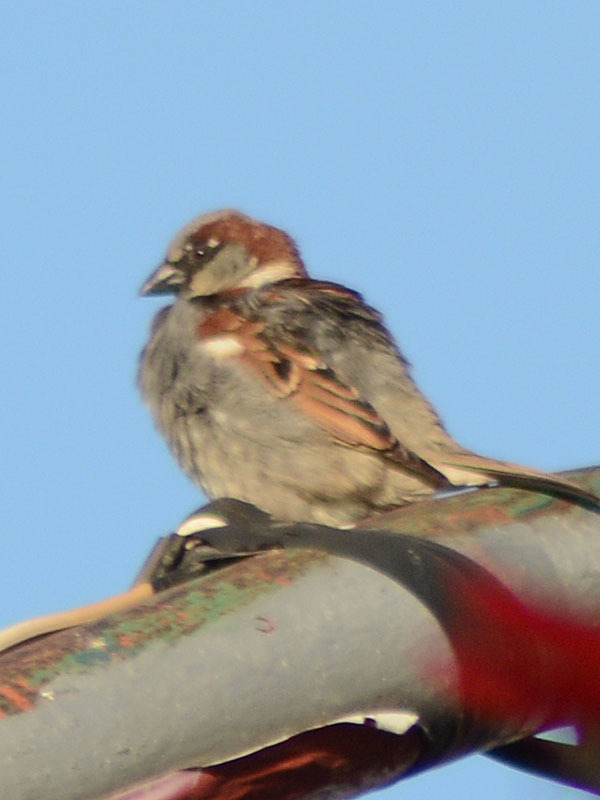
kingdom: Animalia
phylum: Chordata
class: Aves
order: Passeriformes
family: Passeridae
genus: Passer
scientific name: Passer domesticus
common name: House sparrow
